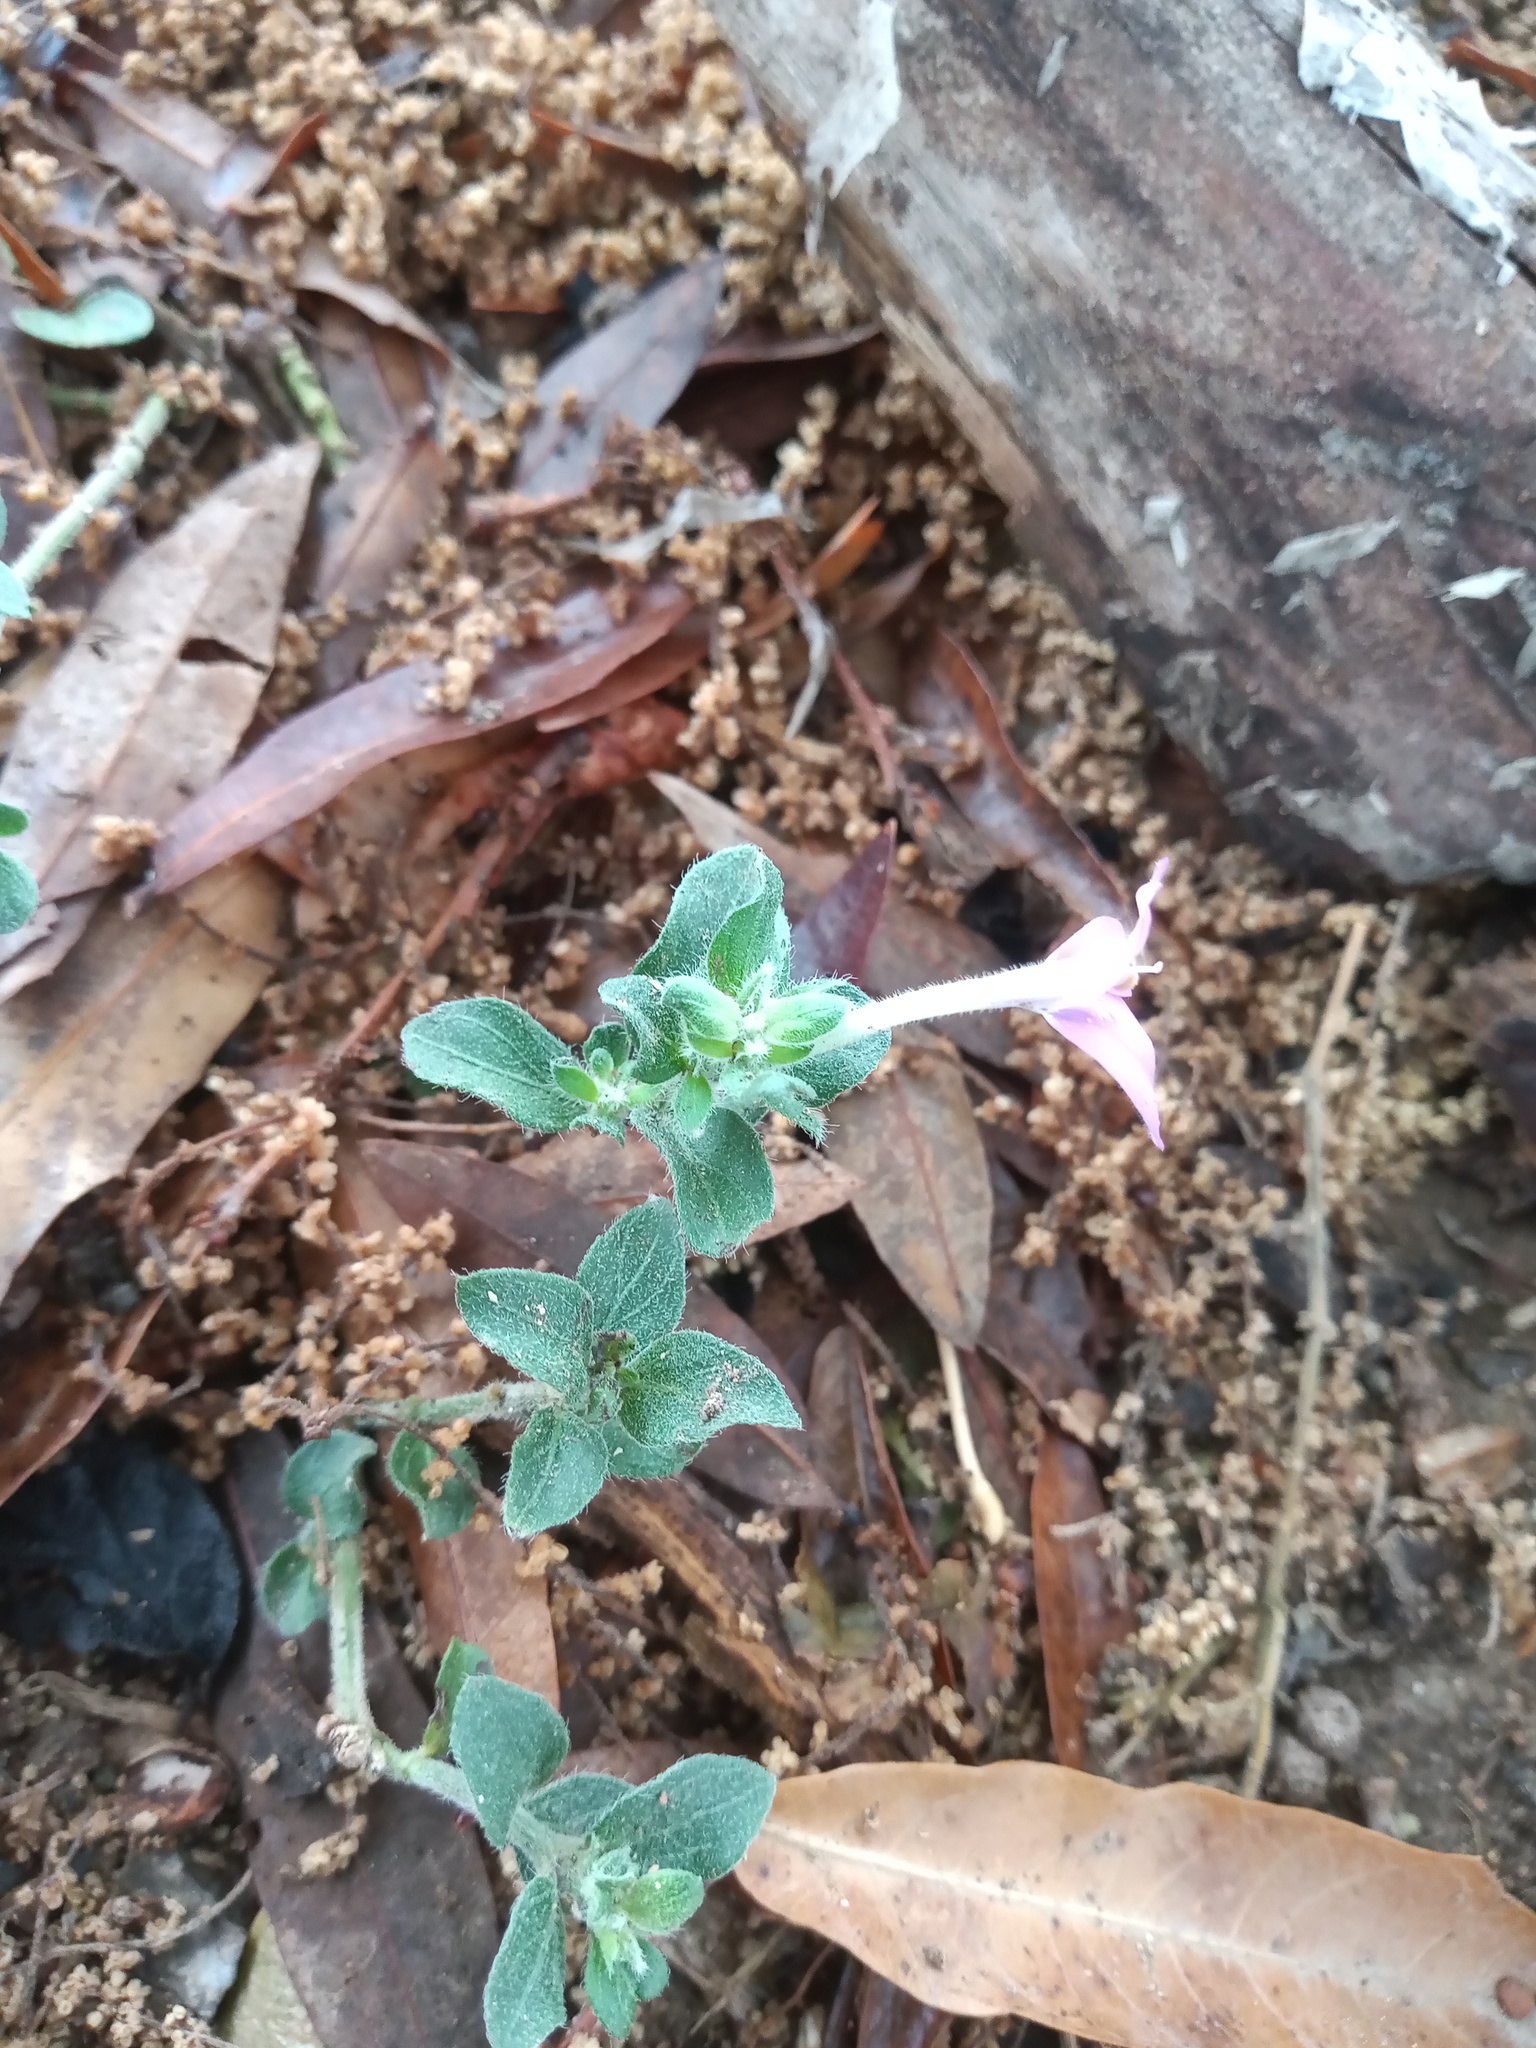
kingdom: Plantae
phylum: Tracheophyta
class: Magnoliopsida
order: Lamiales
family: Acanthaceae
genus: Justicia
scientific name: Justicia pilosella
